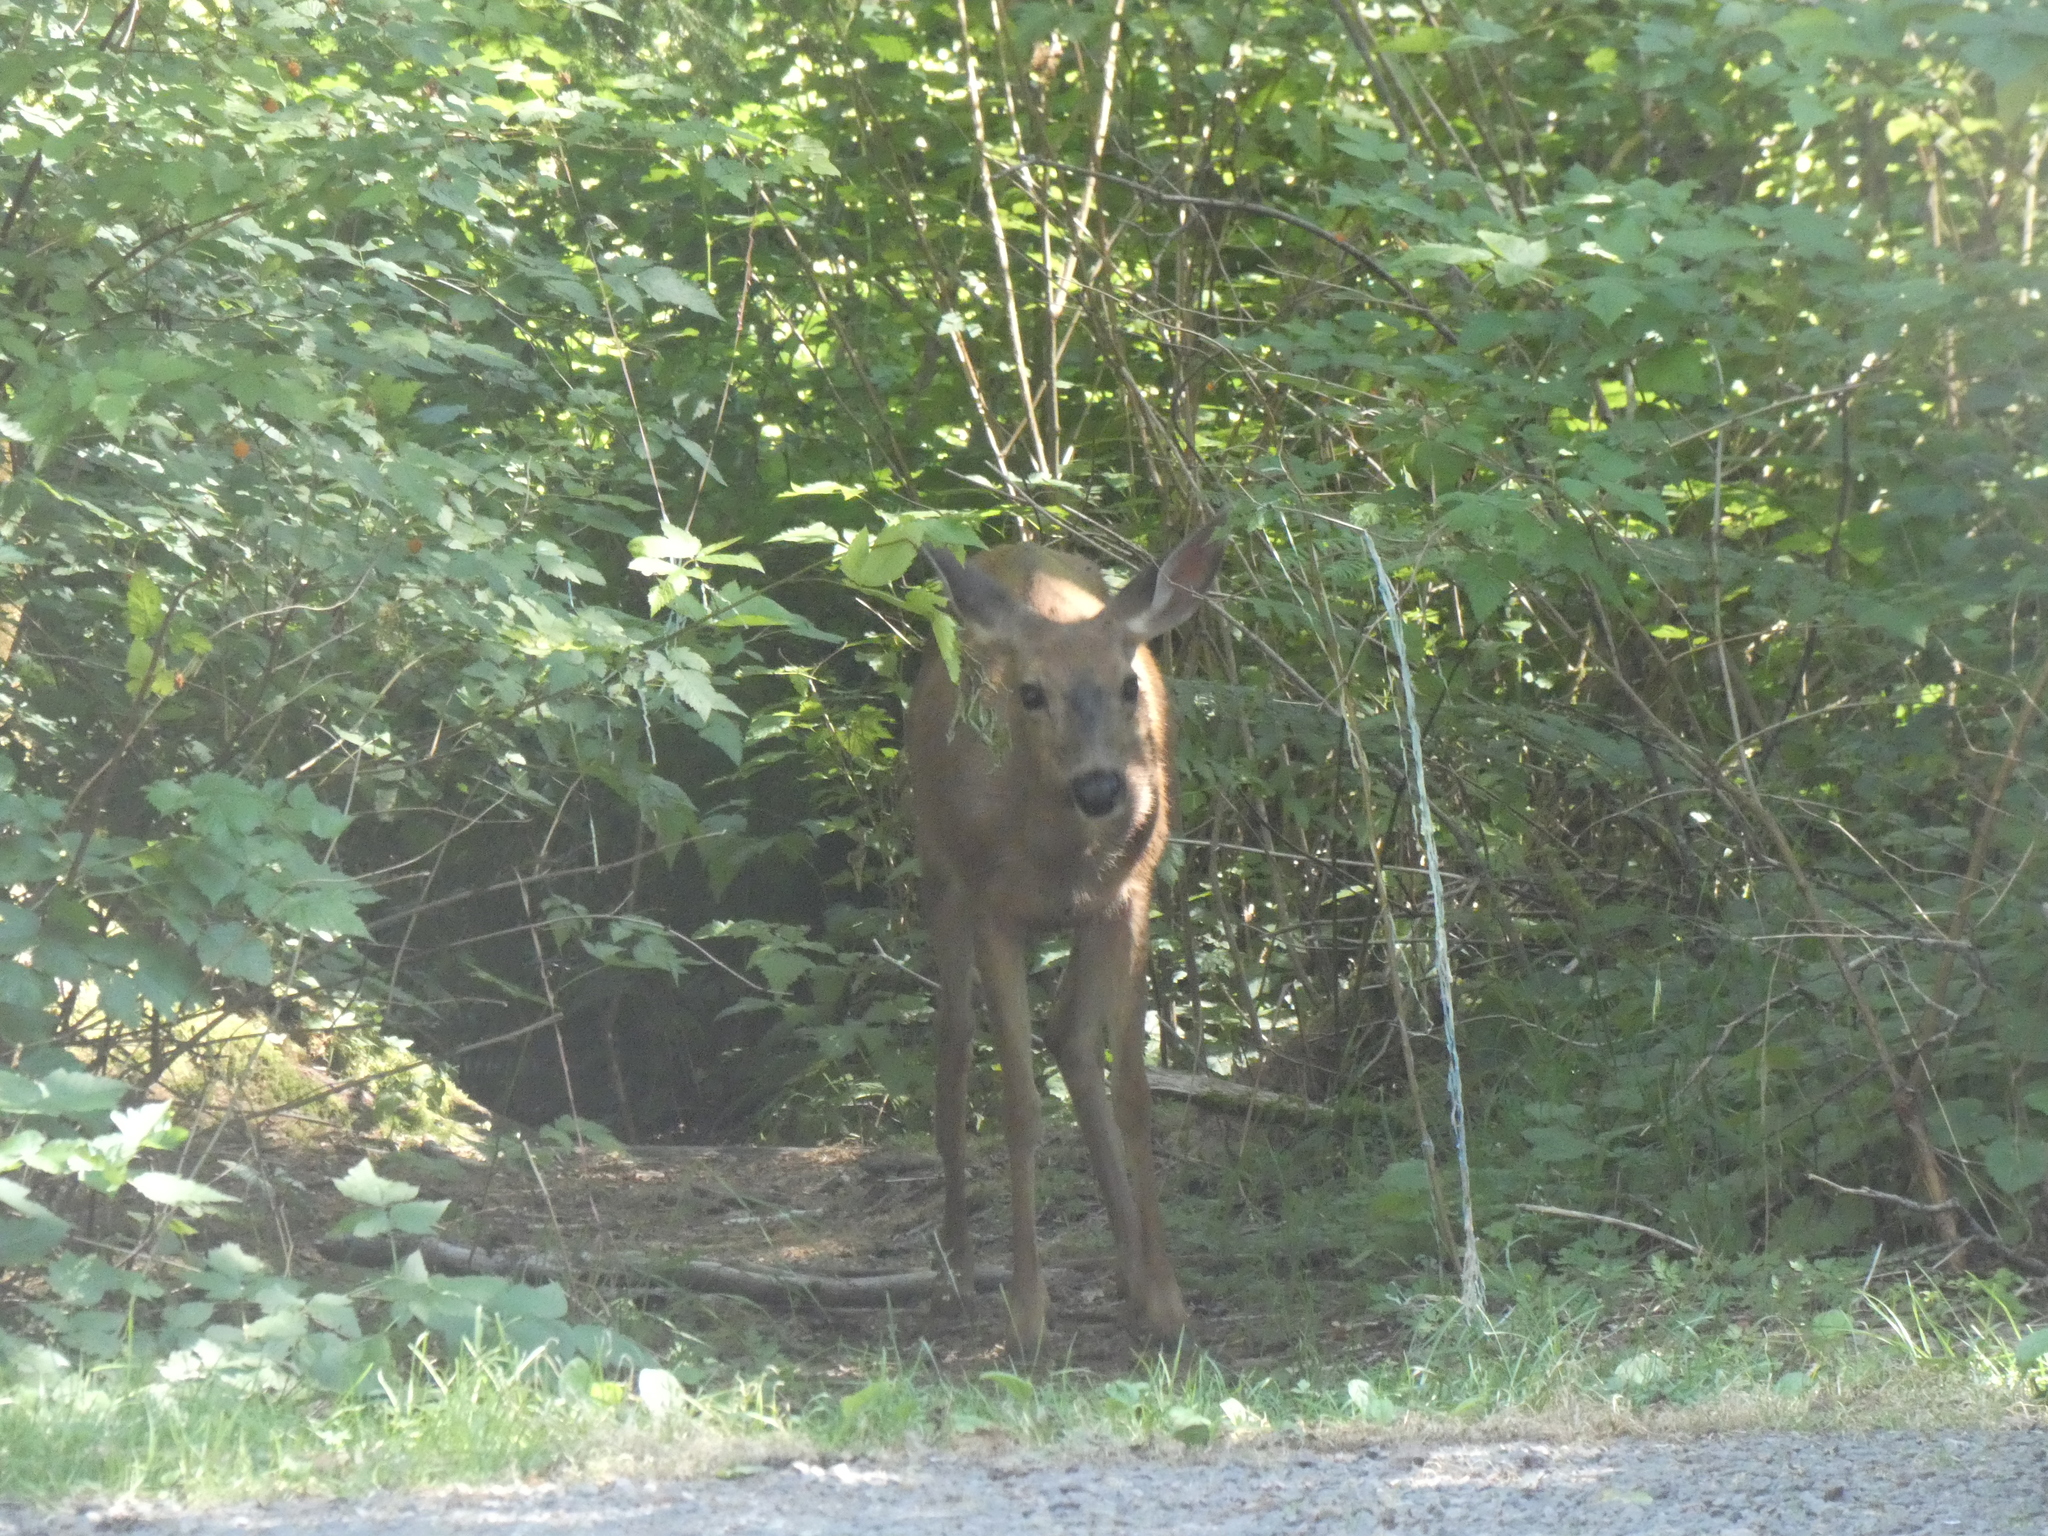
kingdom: Animalia
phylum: Chordata
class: Mammalia
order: Artiodactyla
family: Cervidae
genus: Odocoileus
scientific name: Odocoileus hemionus
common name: Mule deer
